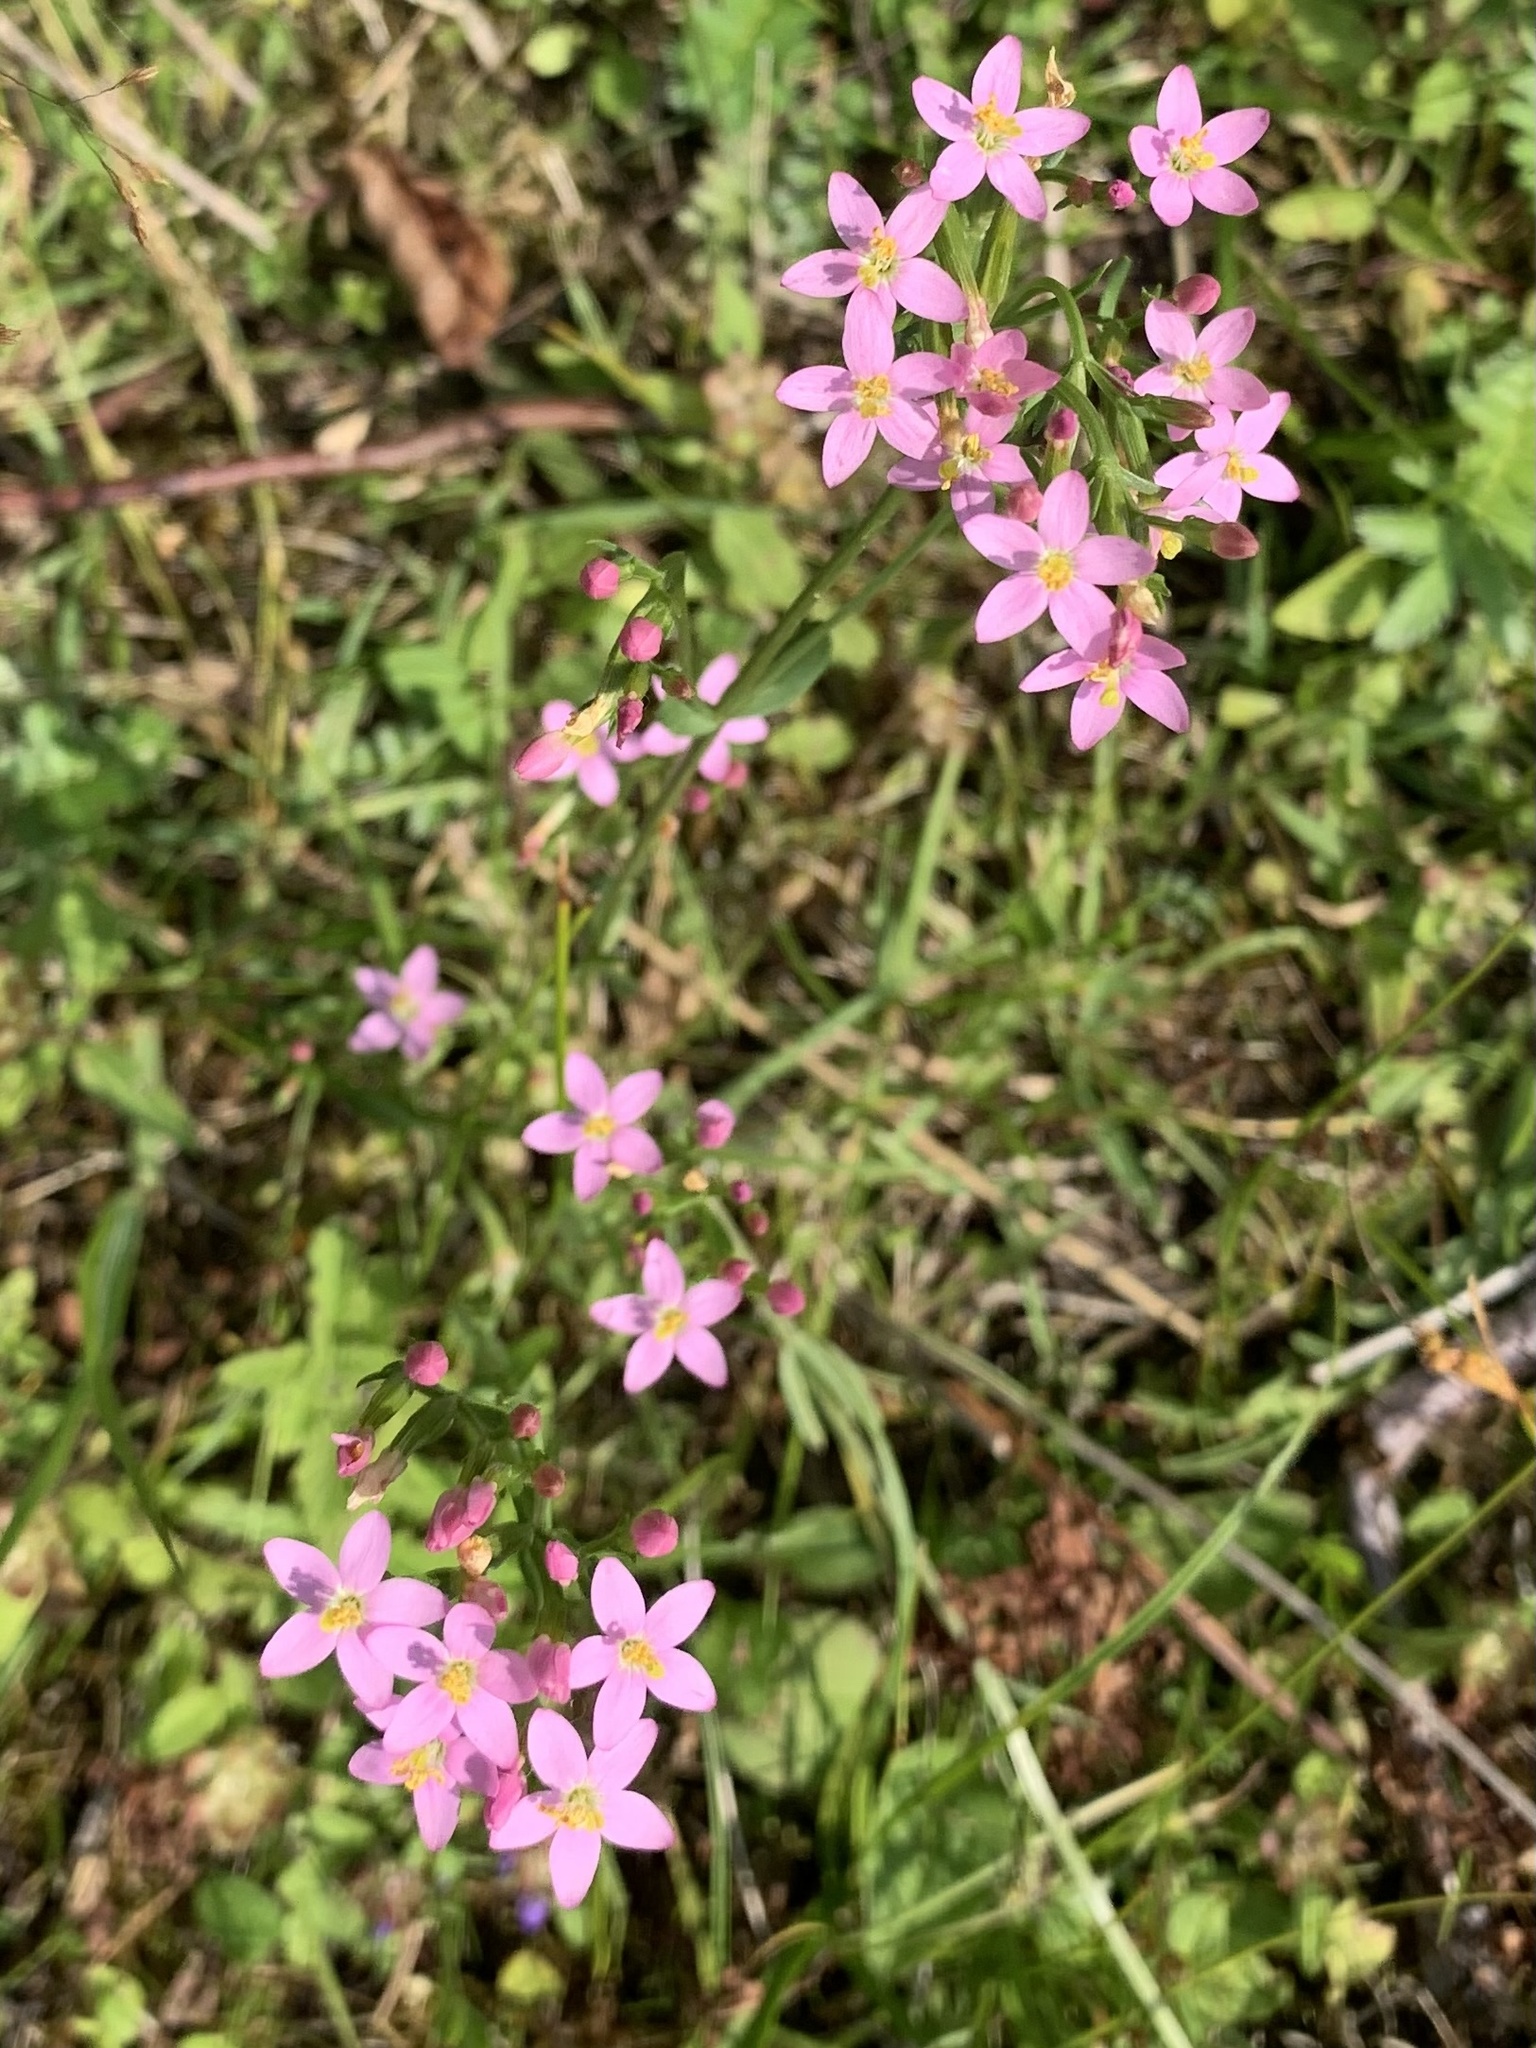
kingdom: Plantae
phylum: Tracheophyta
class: Magnoliopsida
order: Gentianales
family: Gentianaceae
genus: Centaurium
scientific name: Centaurium erythraea
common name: Common centaury
